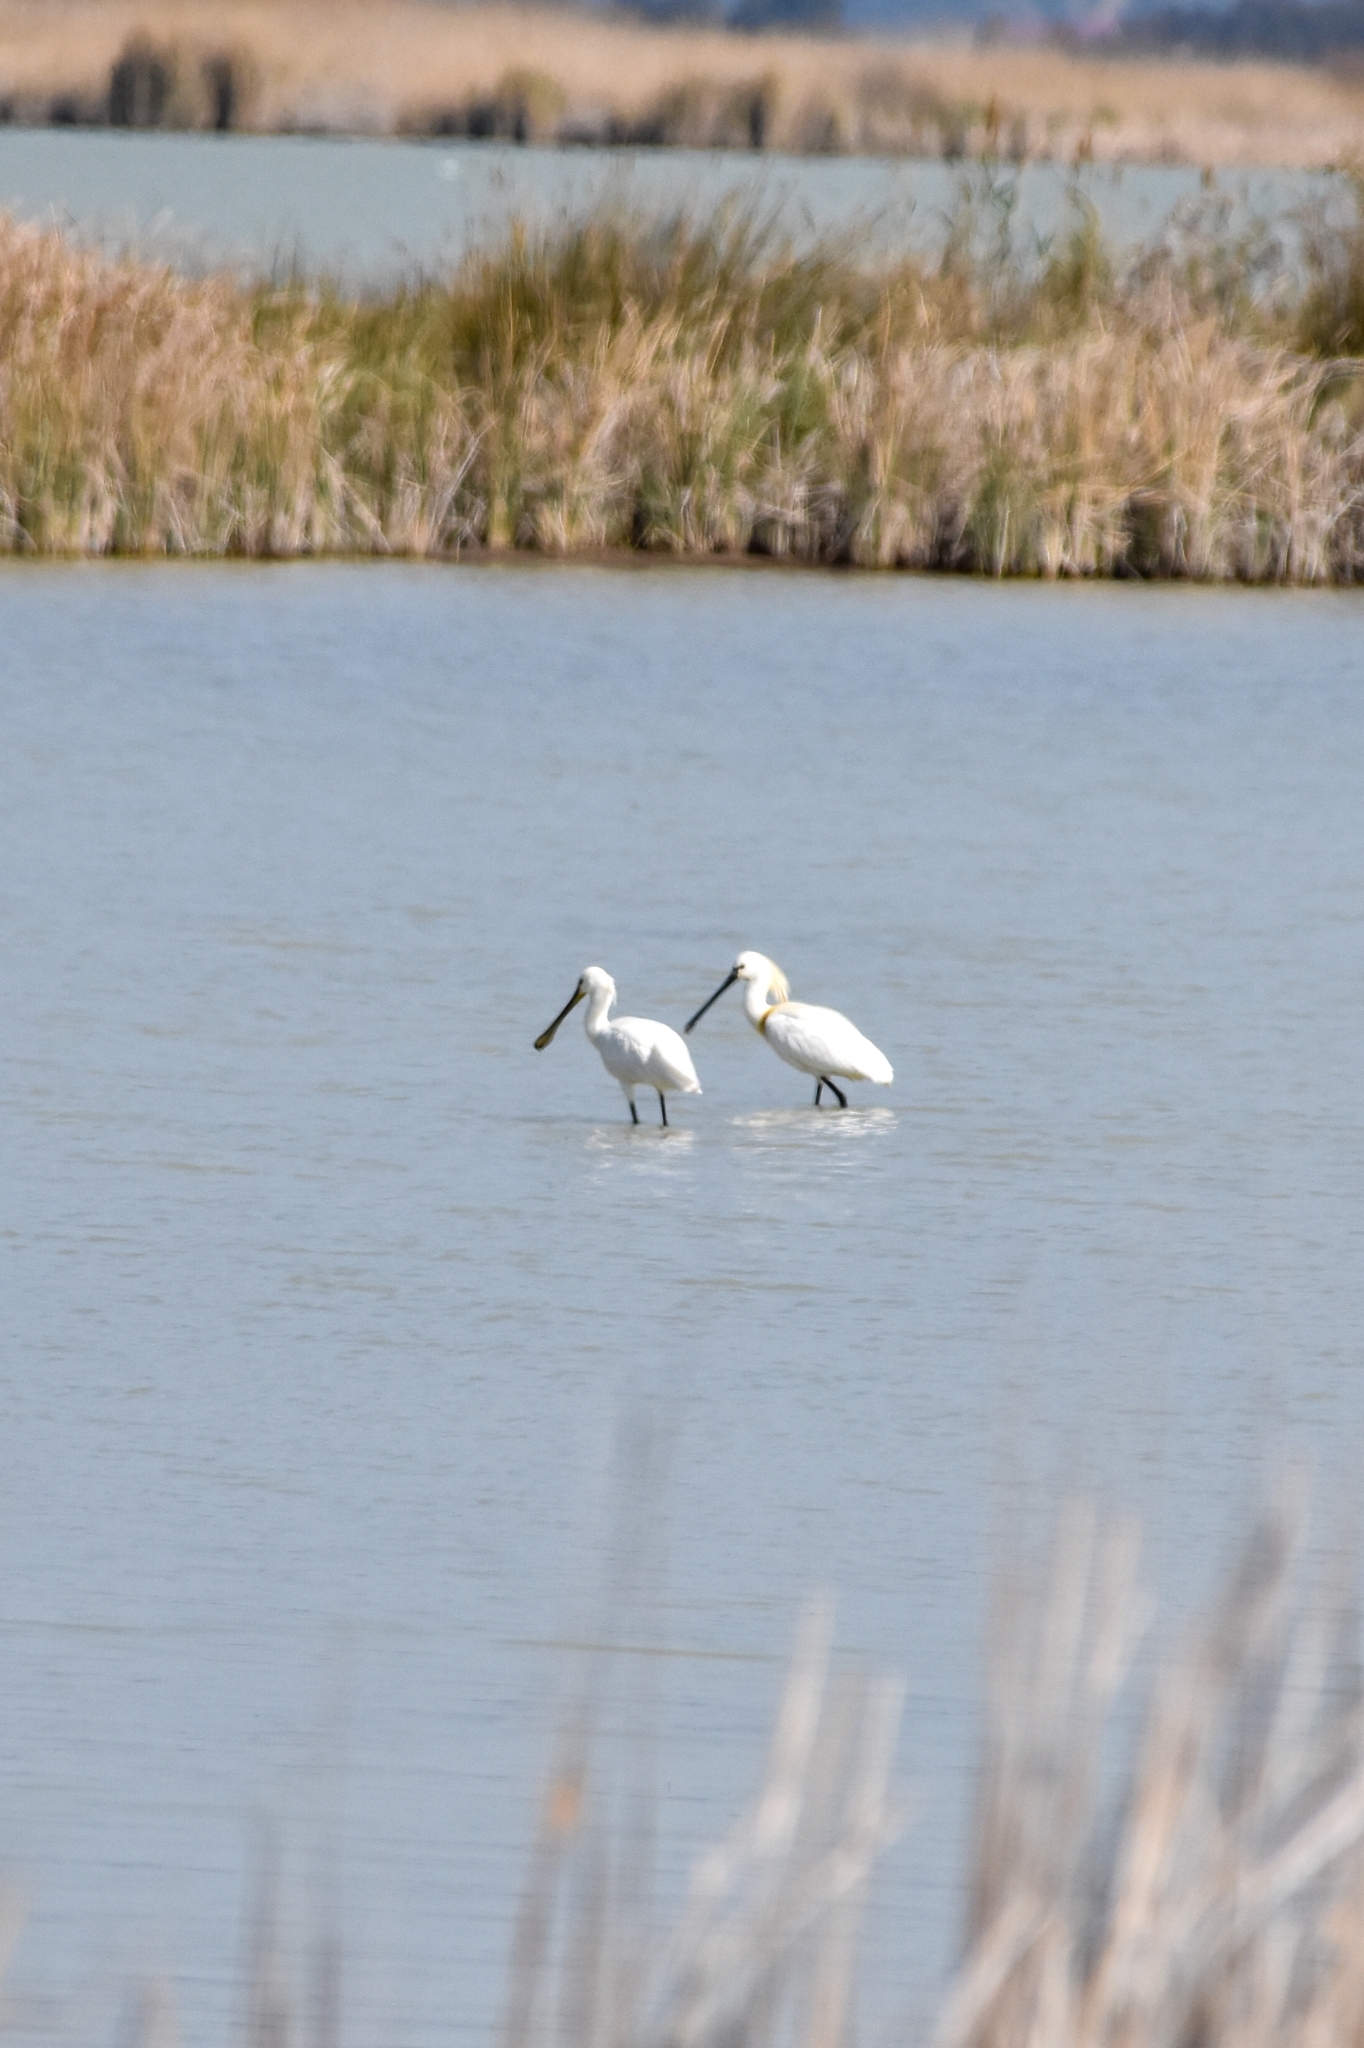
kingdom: Animalia
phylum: Chordata
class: Aves
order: Pelecaniformes
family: Threskiornithidae
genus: Platalea
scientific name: Platalea leucorodia
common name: Eurasian spoonbill
